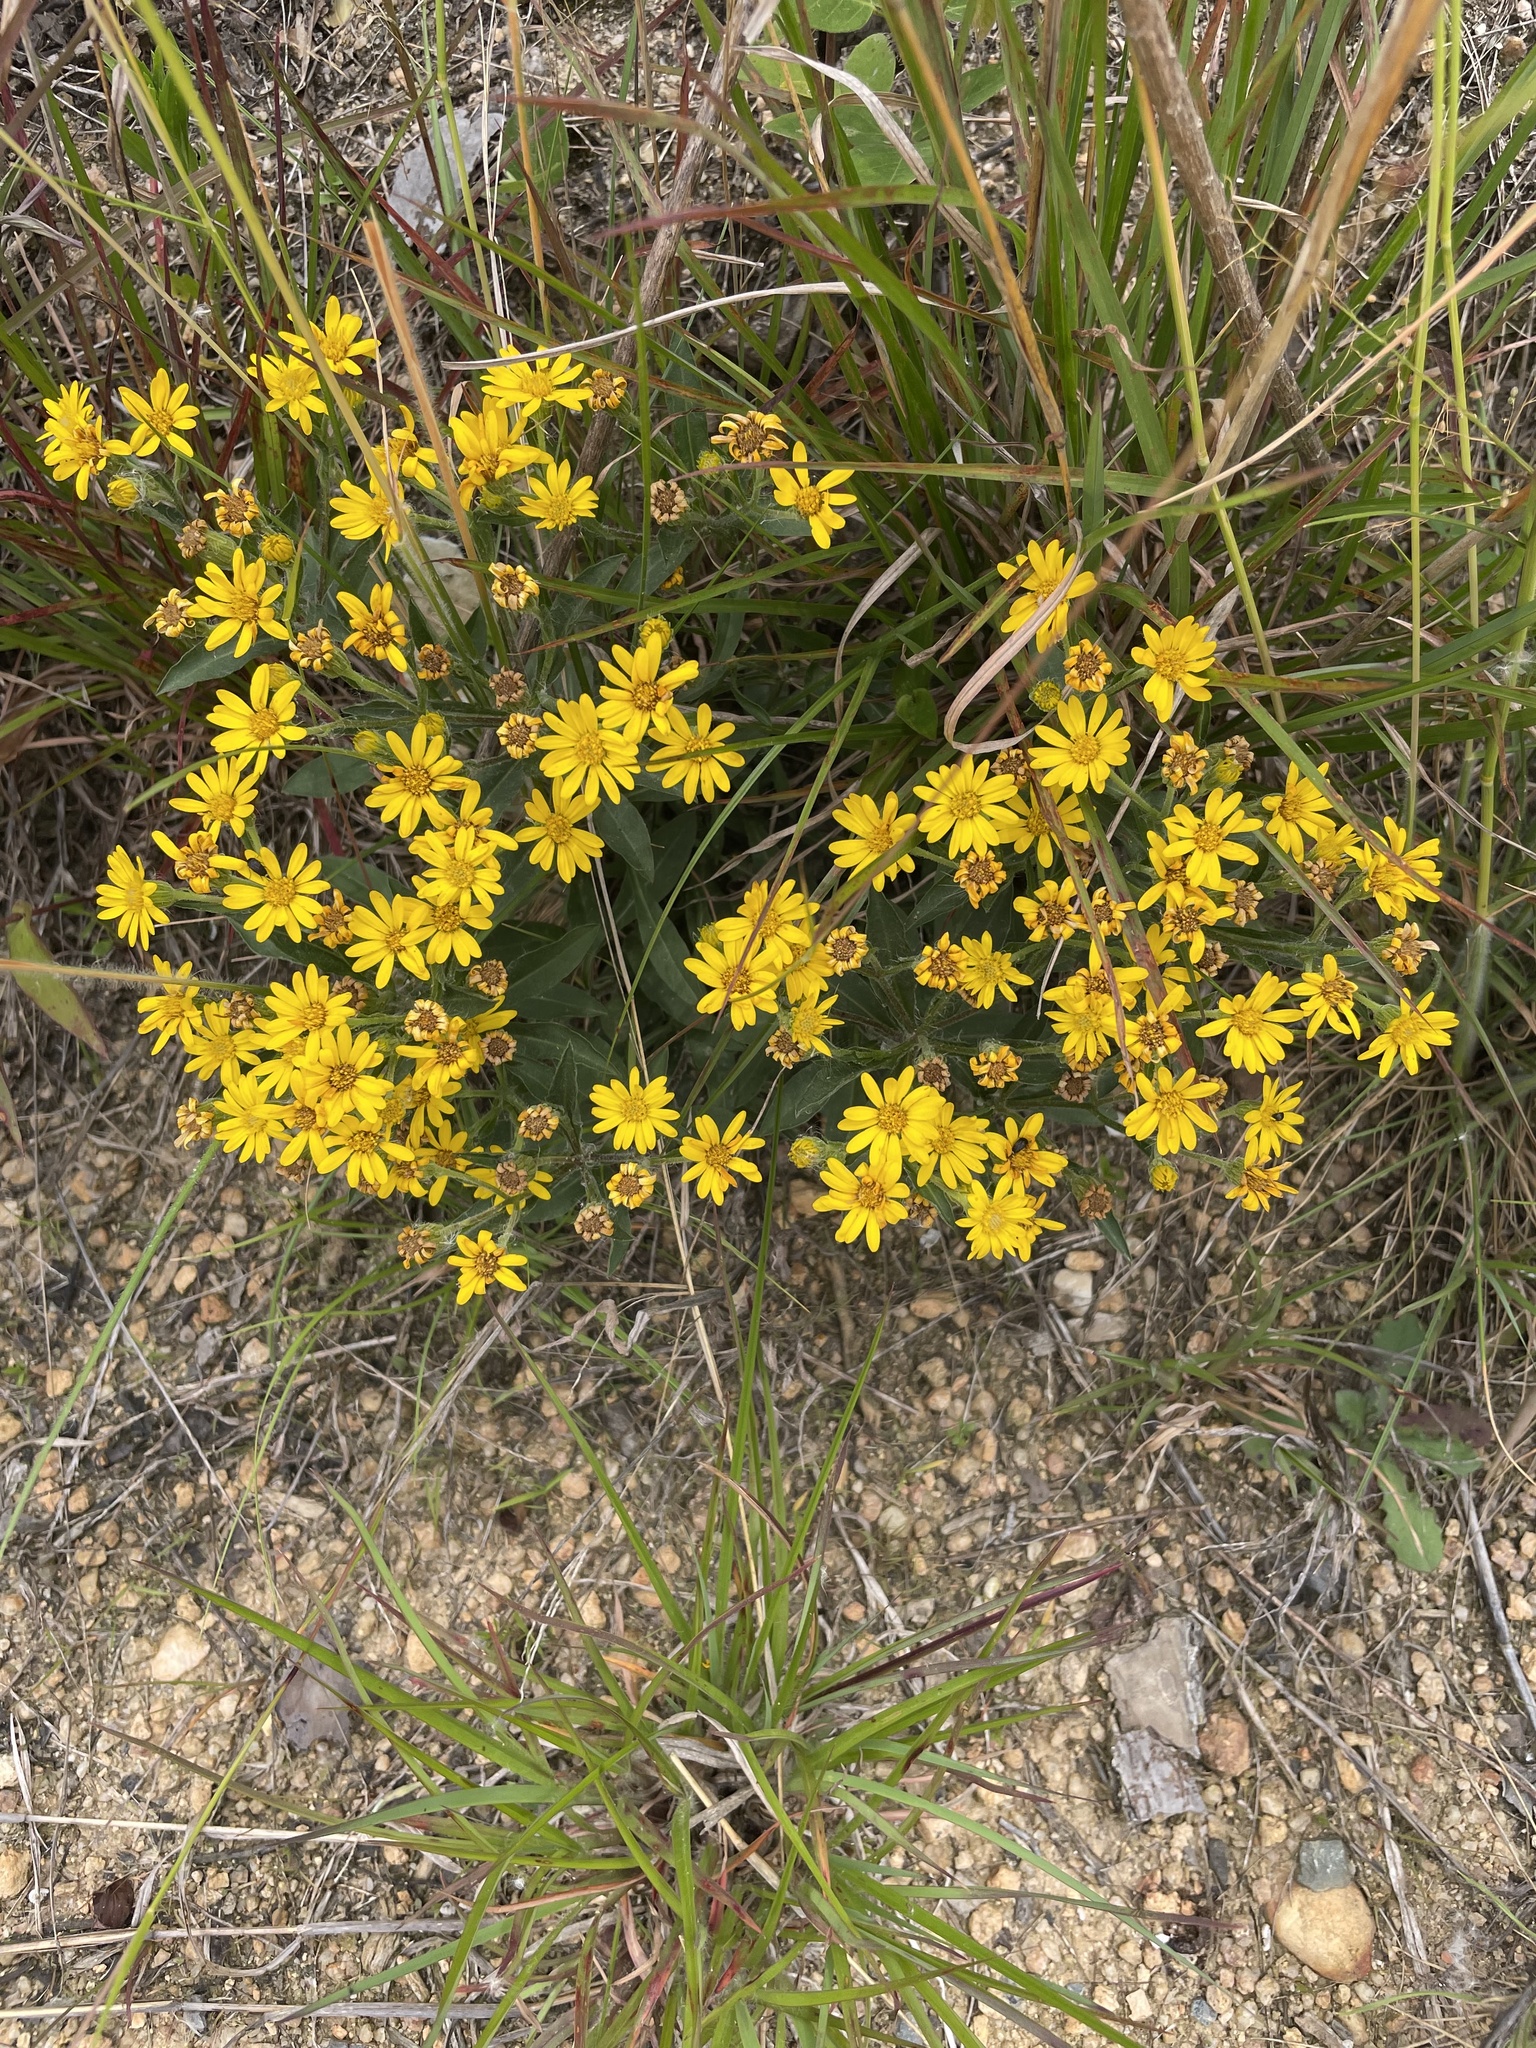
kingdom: Plantae
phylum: Tracheophyta
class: Magnoliopsida
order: Asterales
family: Asteraceae
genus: Chrysopsis
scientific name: Chrysopsis mariana
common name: Maryland golden-aster
